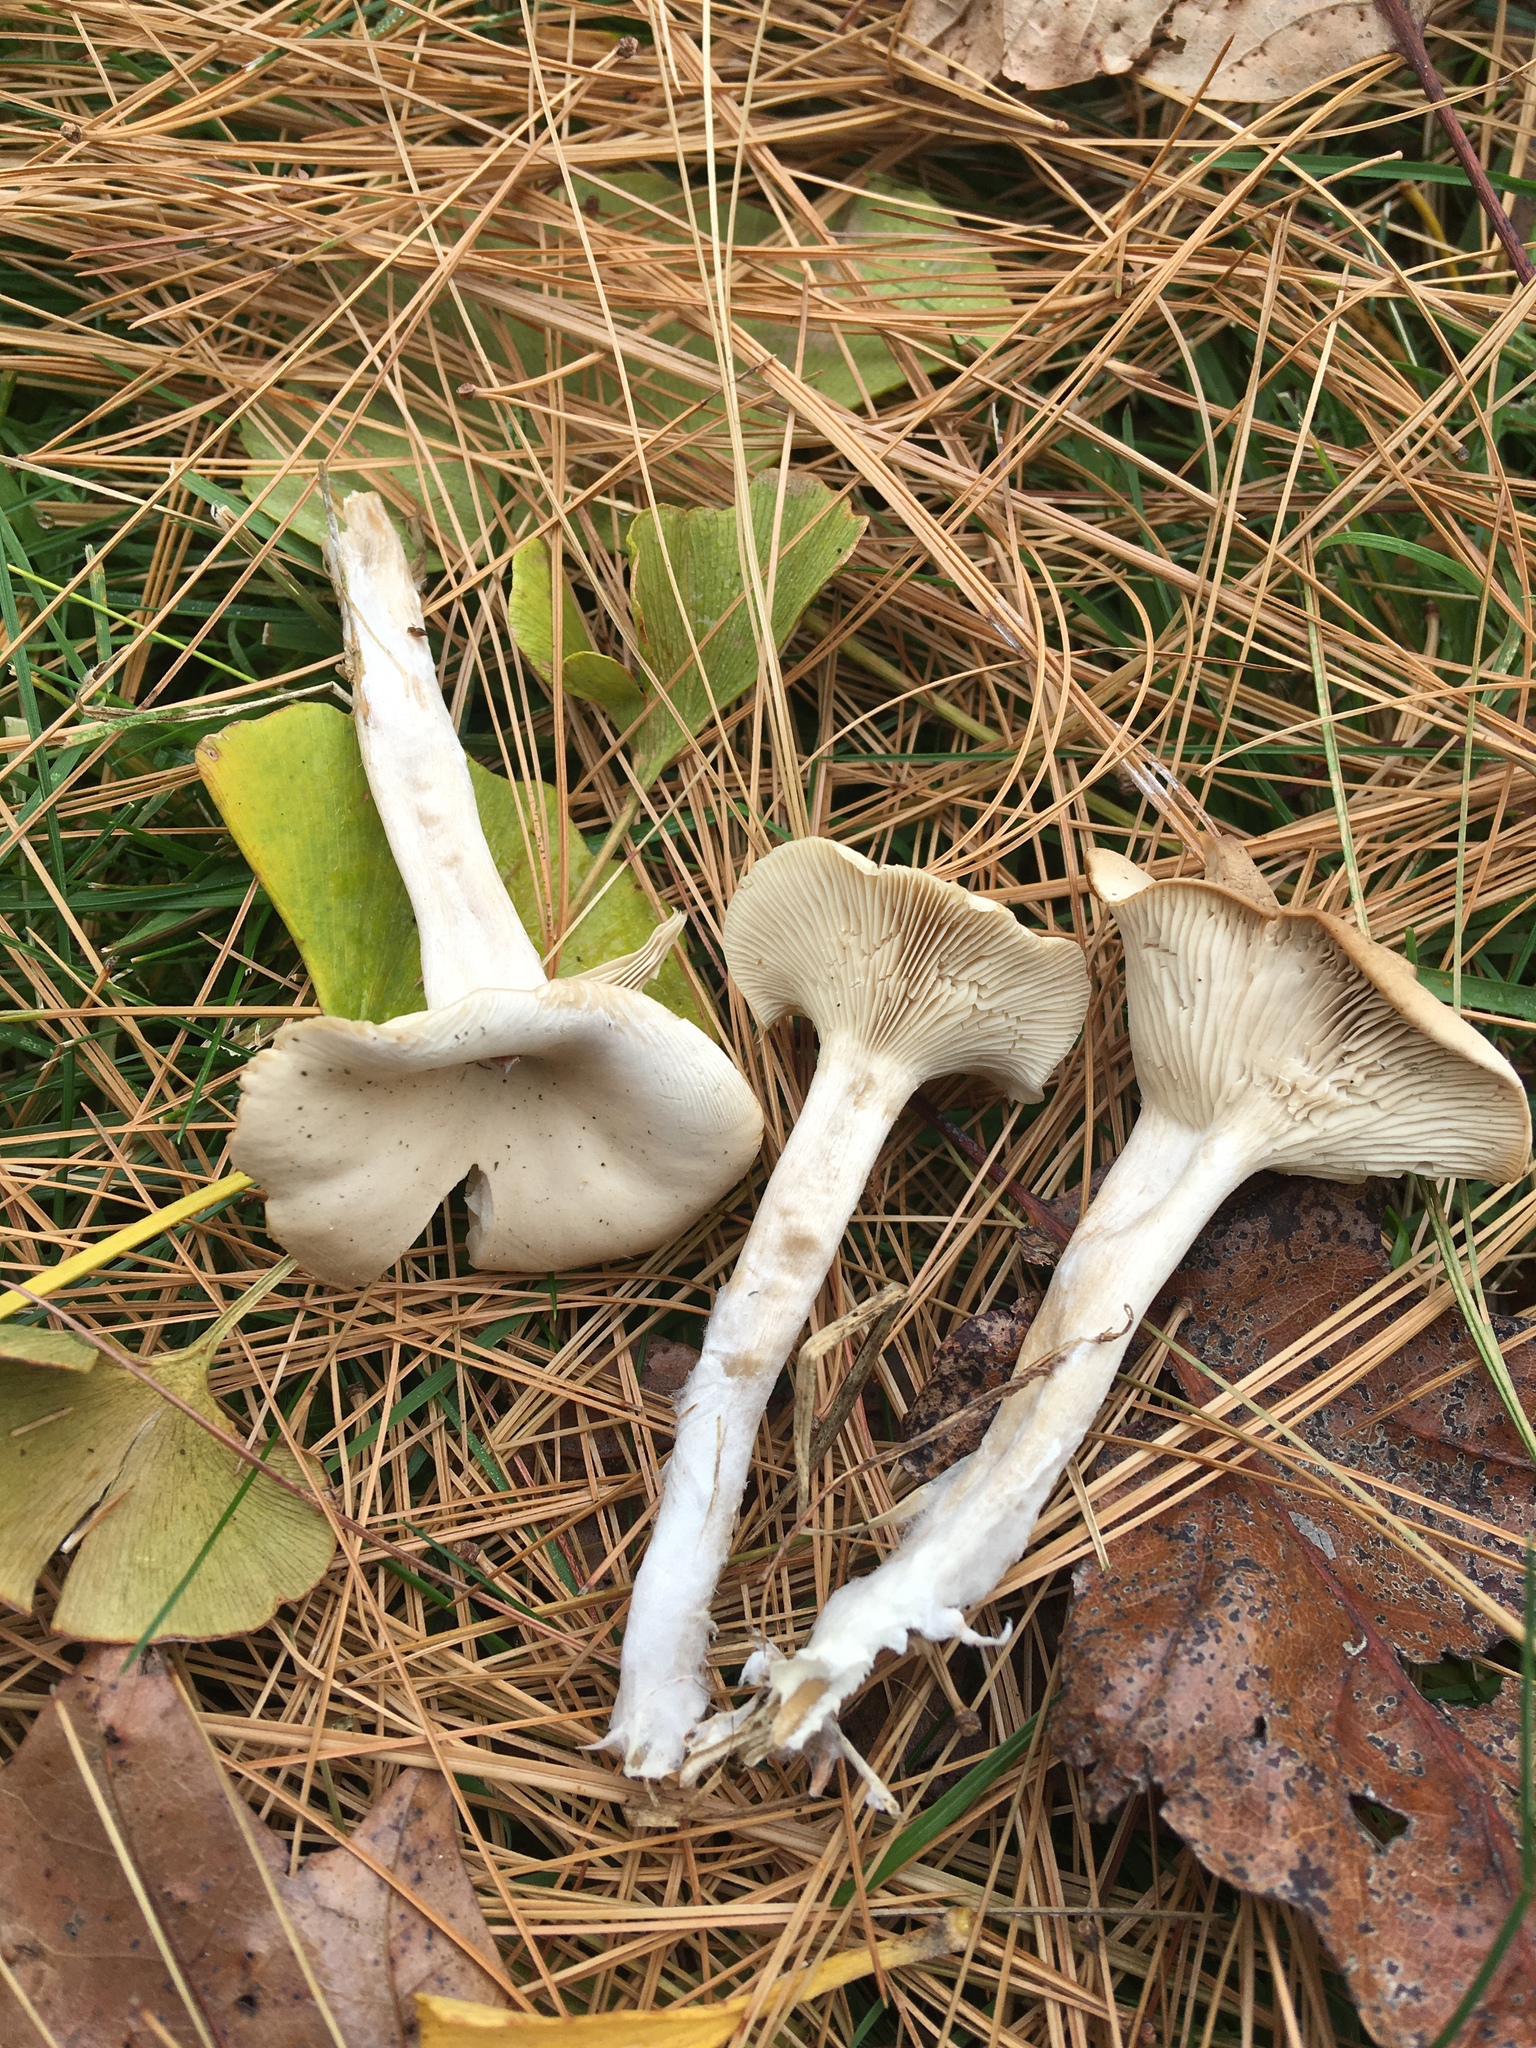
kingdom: Fungi
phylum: Basidiomycota
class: Agaricomycetes
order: Agaricales
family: Tricholomataceae
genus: Clitocybe
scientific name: Clitocybe coniferophila
